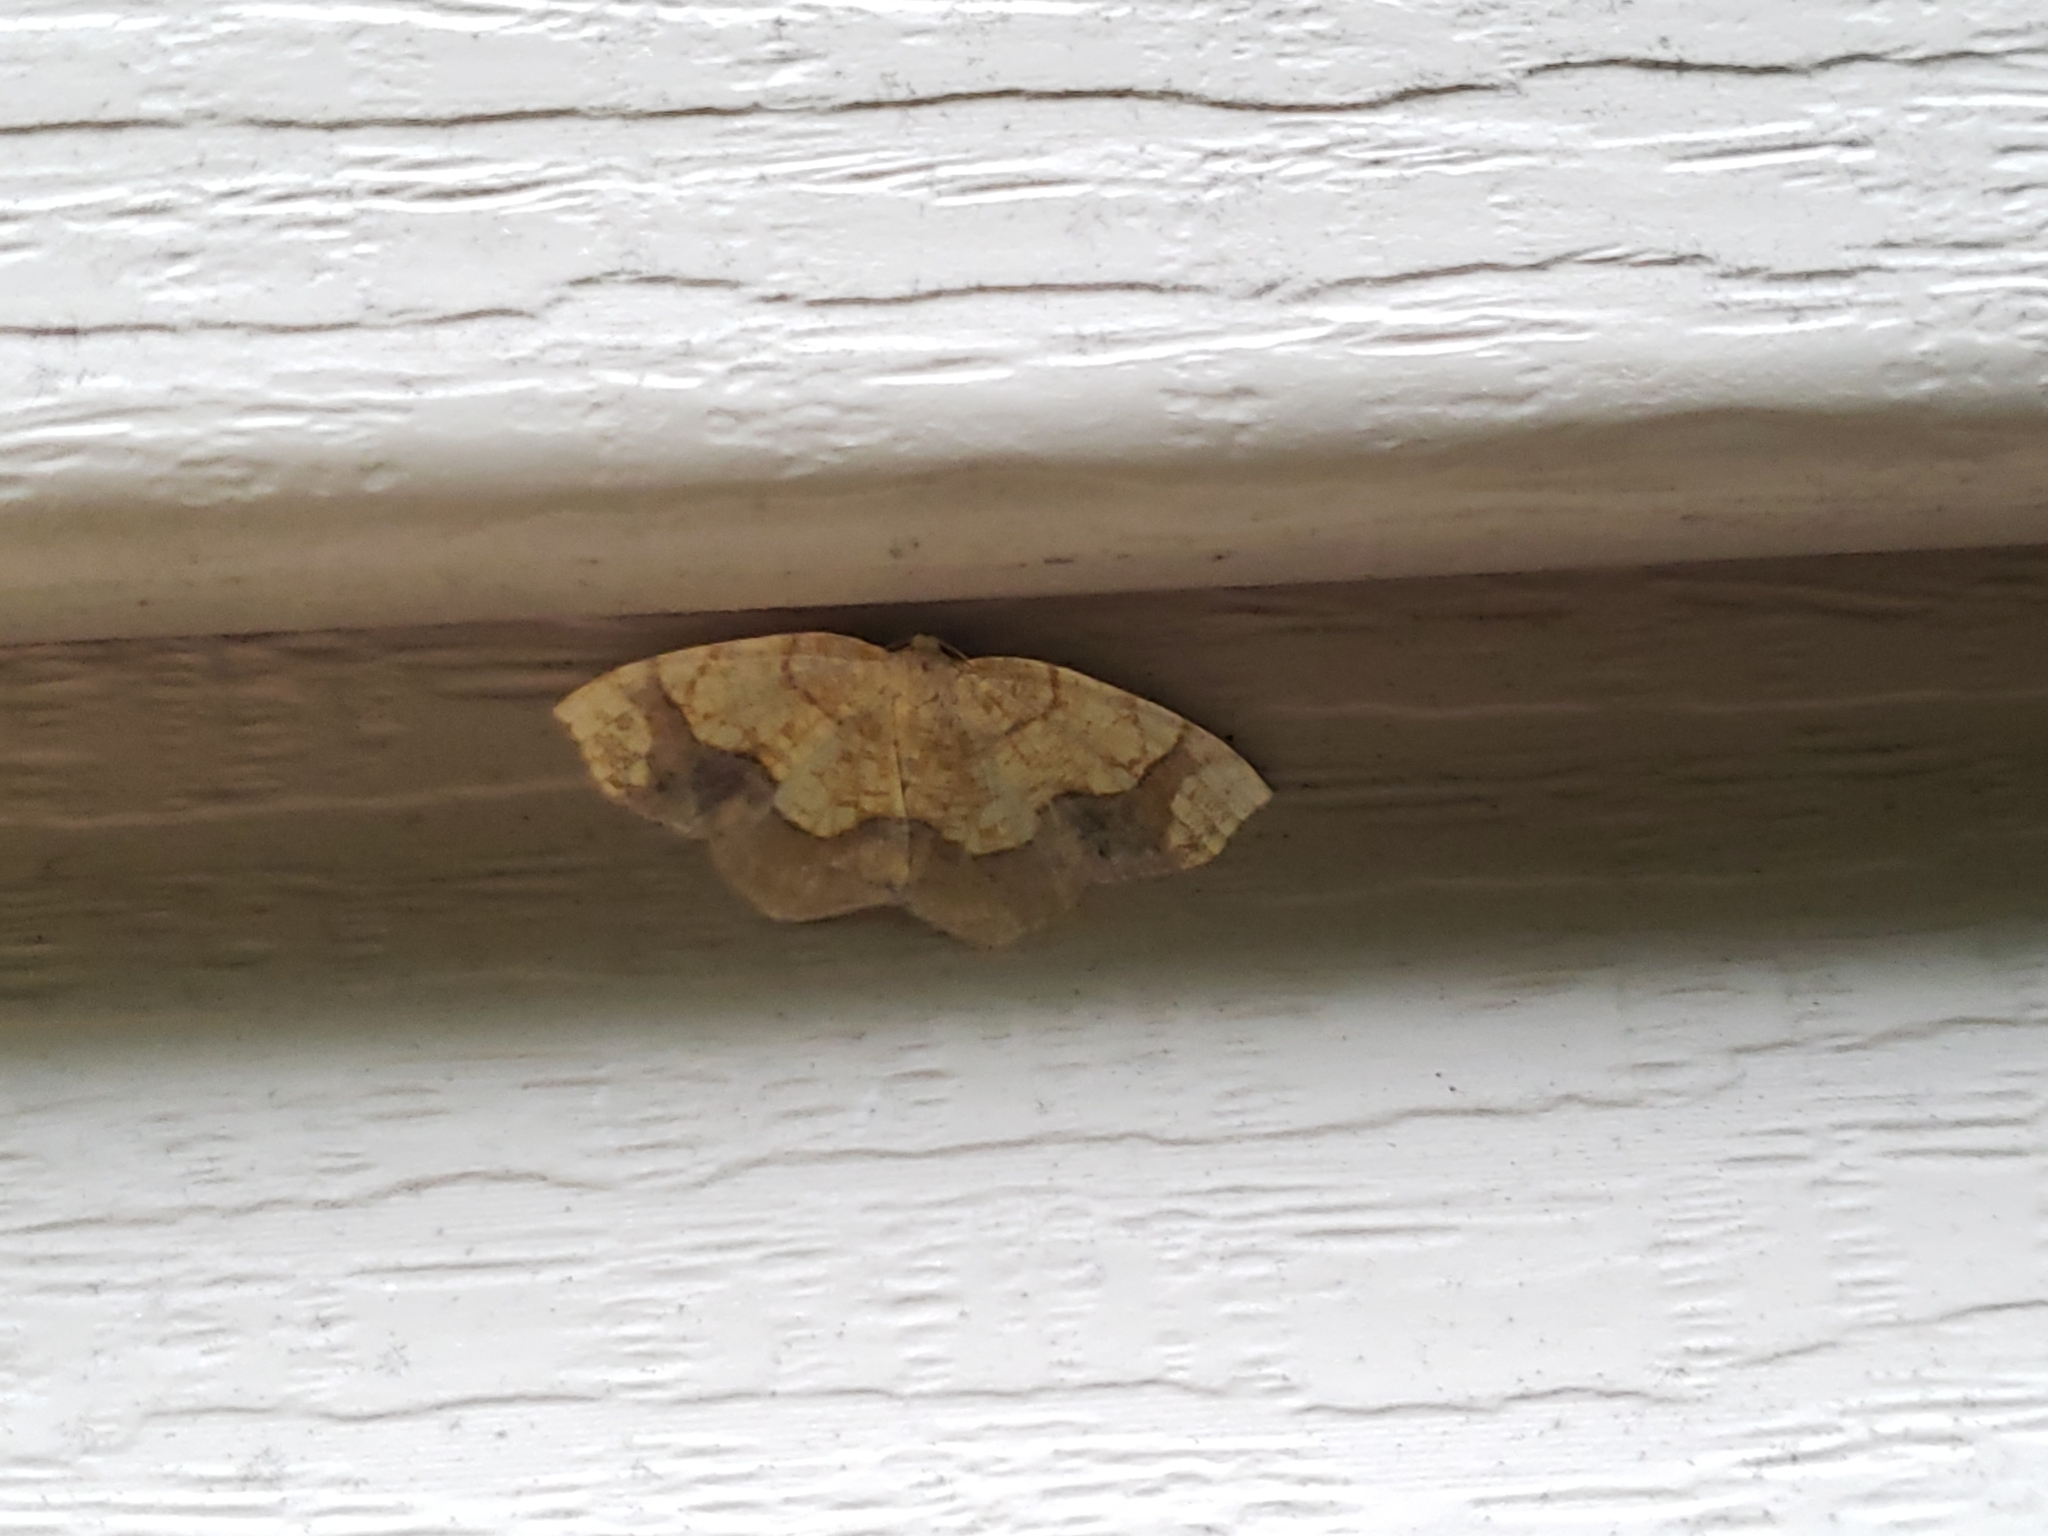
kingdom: Animalia
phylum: Arthropoda
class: Insecta
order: Lepidoptera
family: Geometridae
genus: Nematocampa
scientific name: Nematocampa resistaria
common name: Horned spanworm moth
